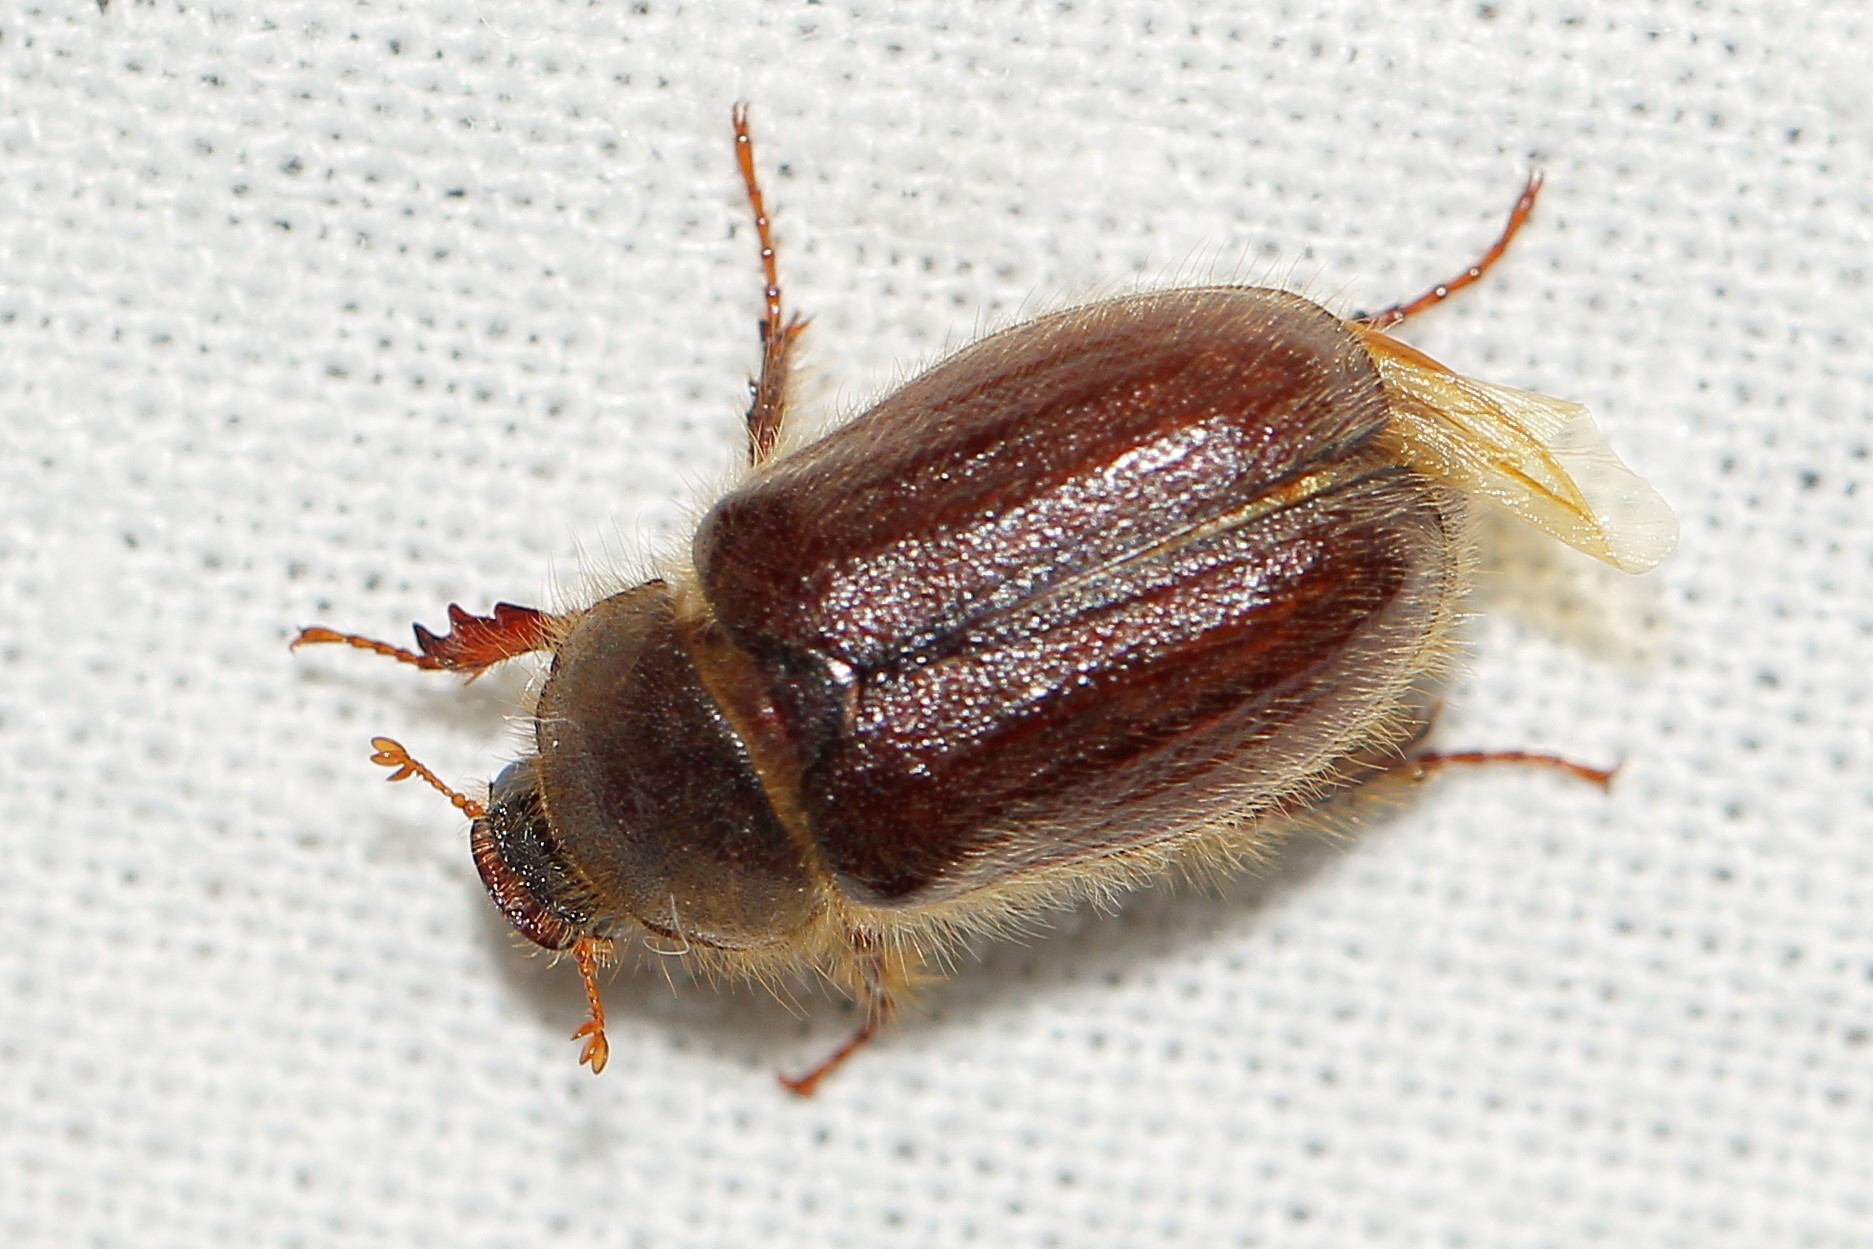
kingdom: Animalia
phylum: Arthropoda
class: Insecta
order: Coleoptera
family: Scarabaeidae
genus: Lasiopsis
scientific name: Lasiopsis canina
